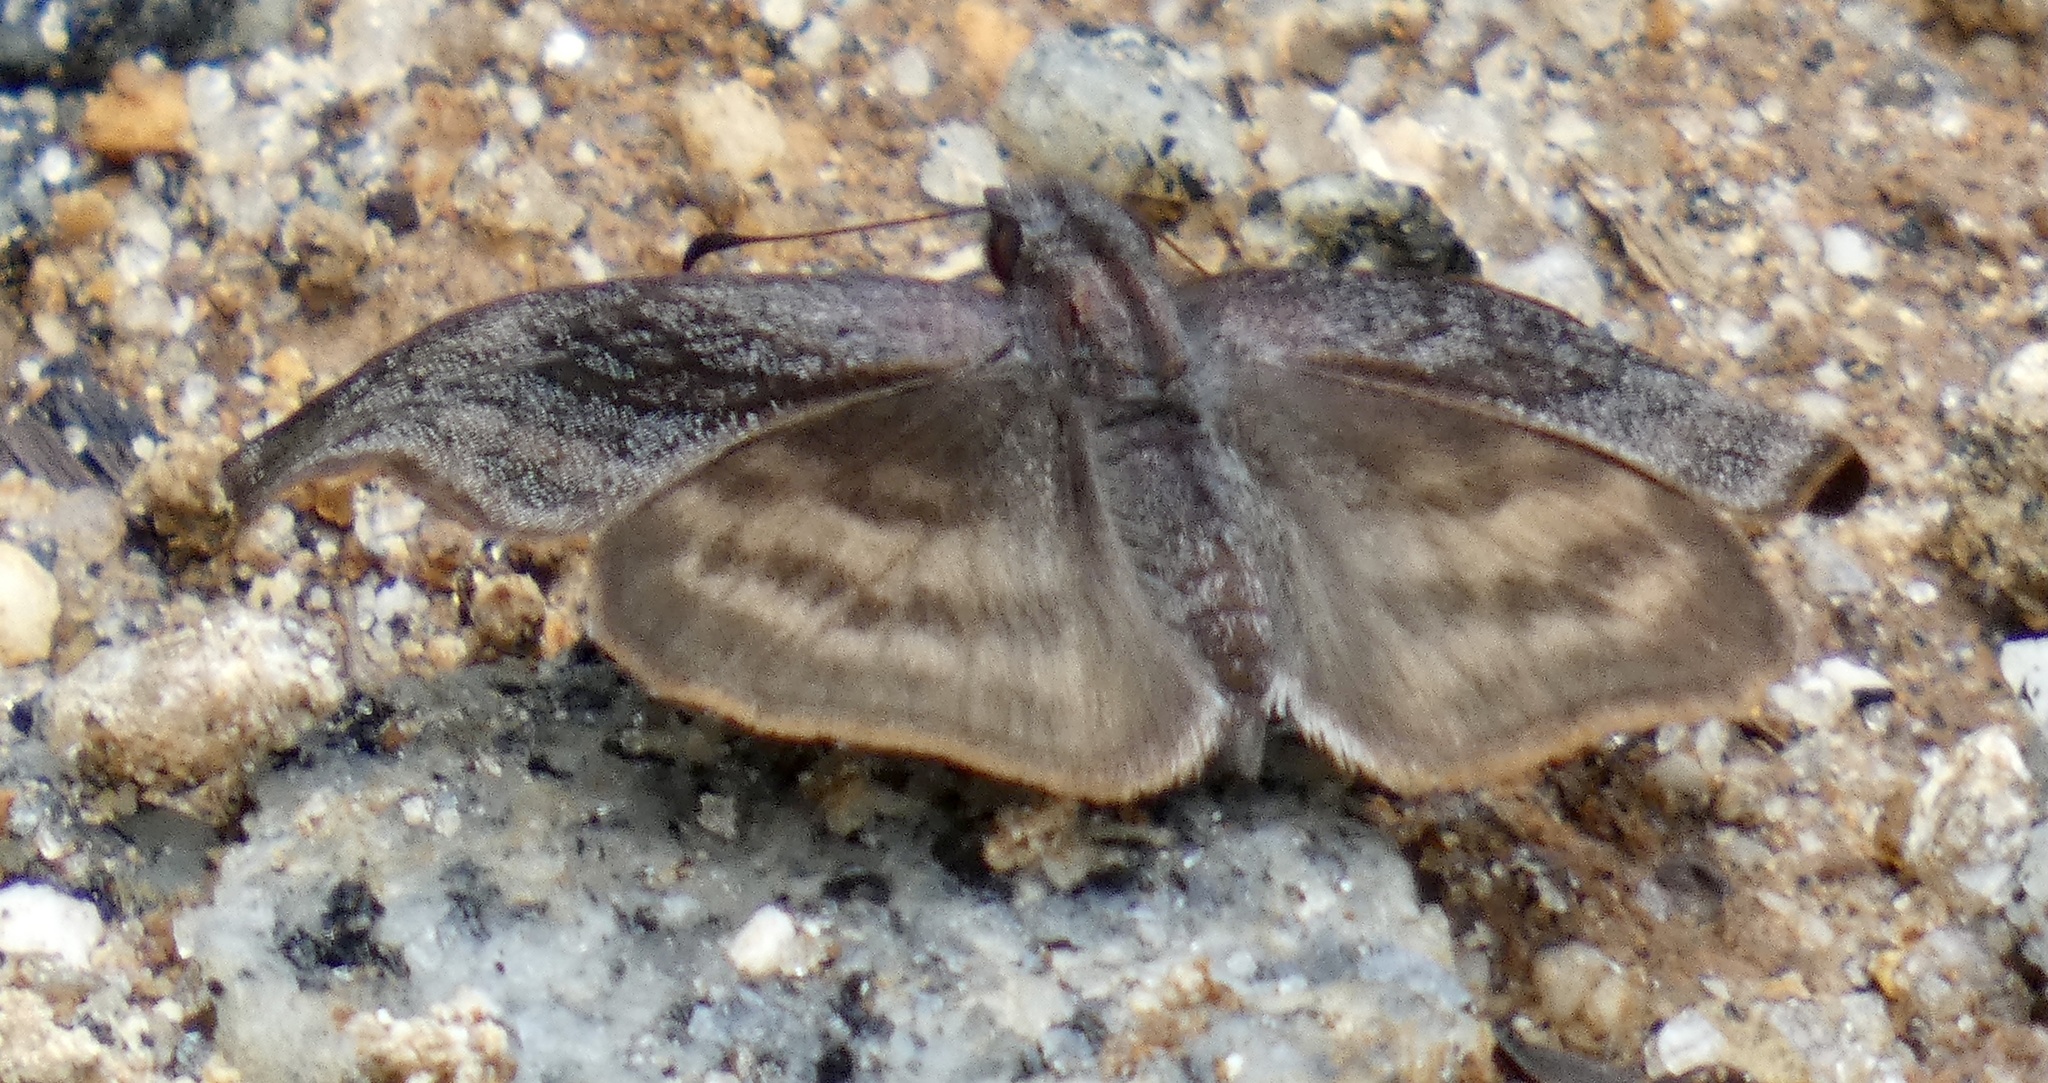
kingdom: Animalia
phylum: Arthropoda
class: Insecta
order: Lepidoptera
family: Hesperiidae
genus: Theagenes
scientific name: Theagenes dichrous
